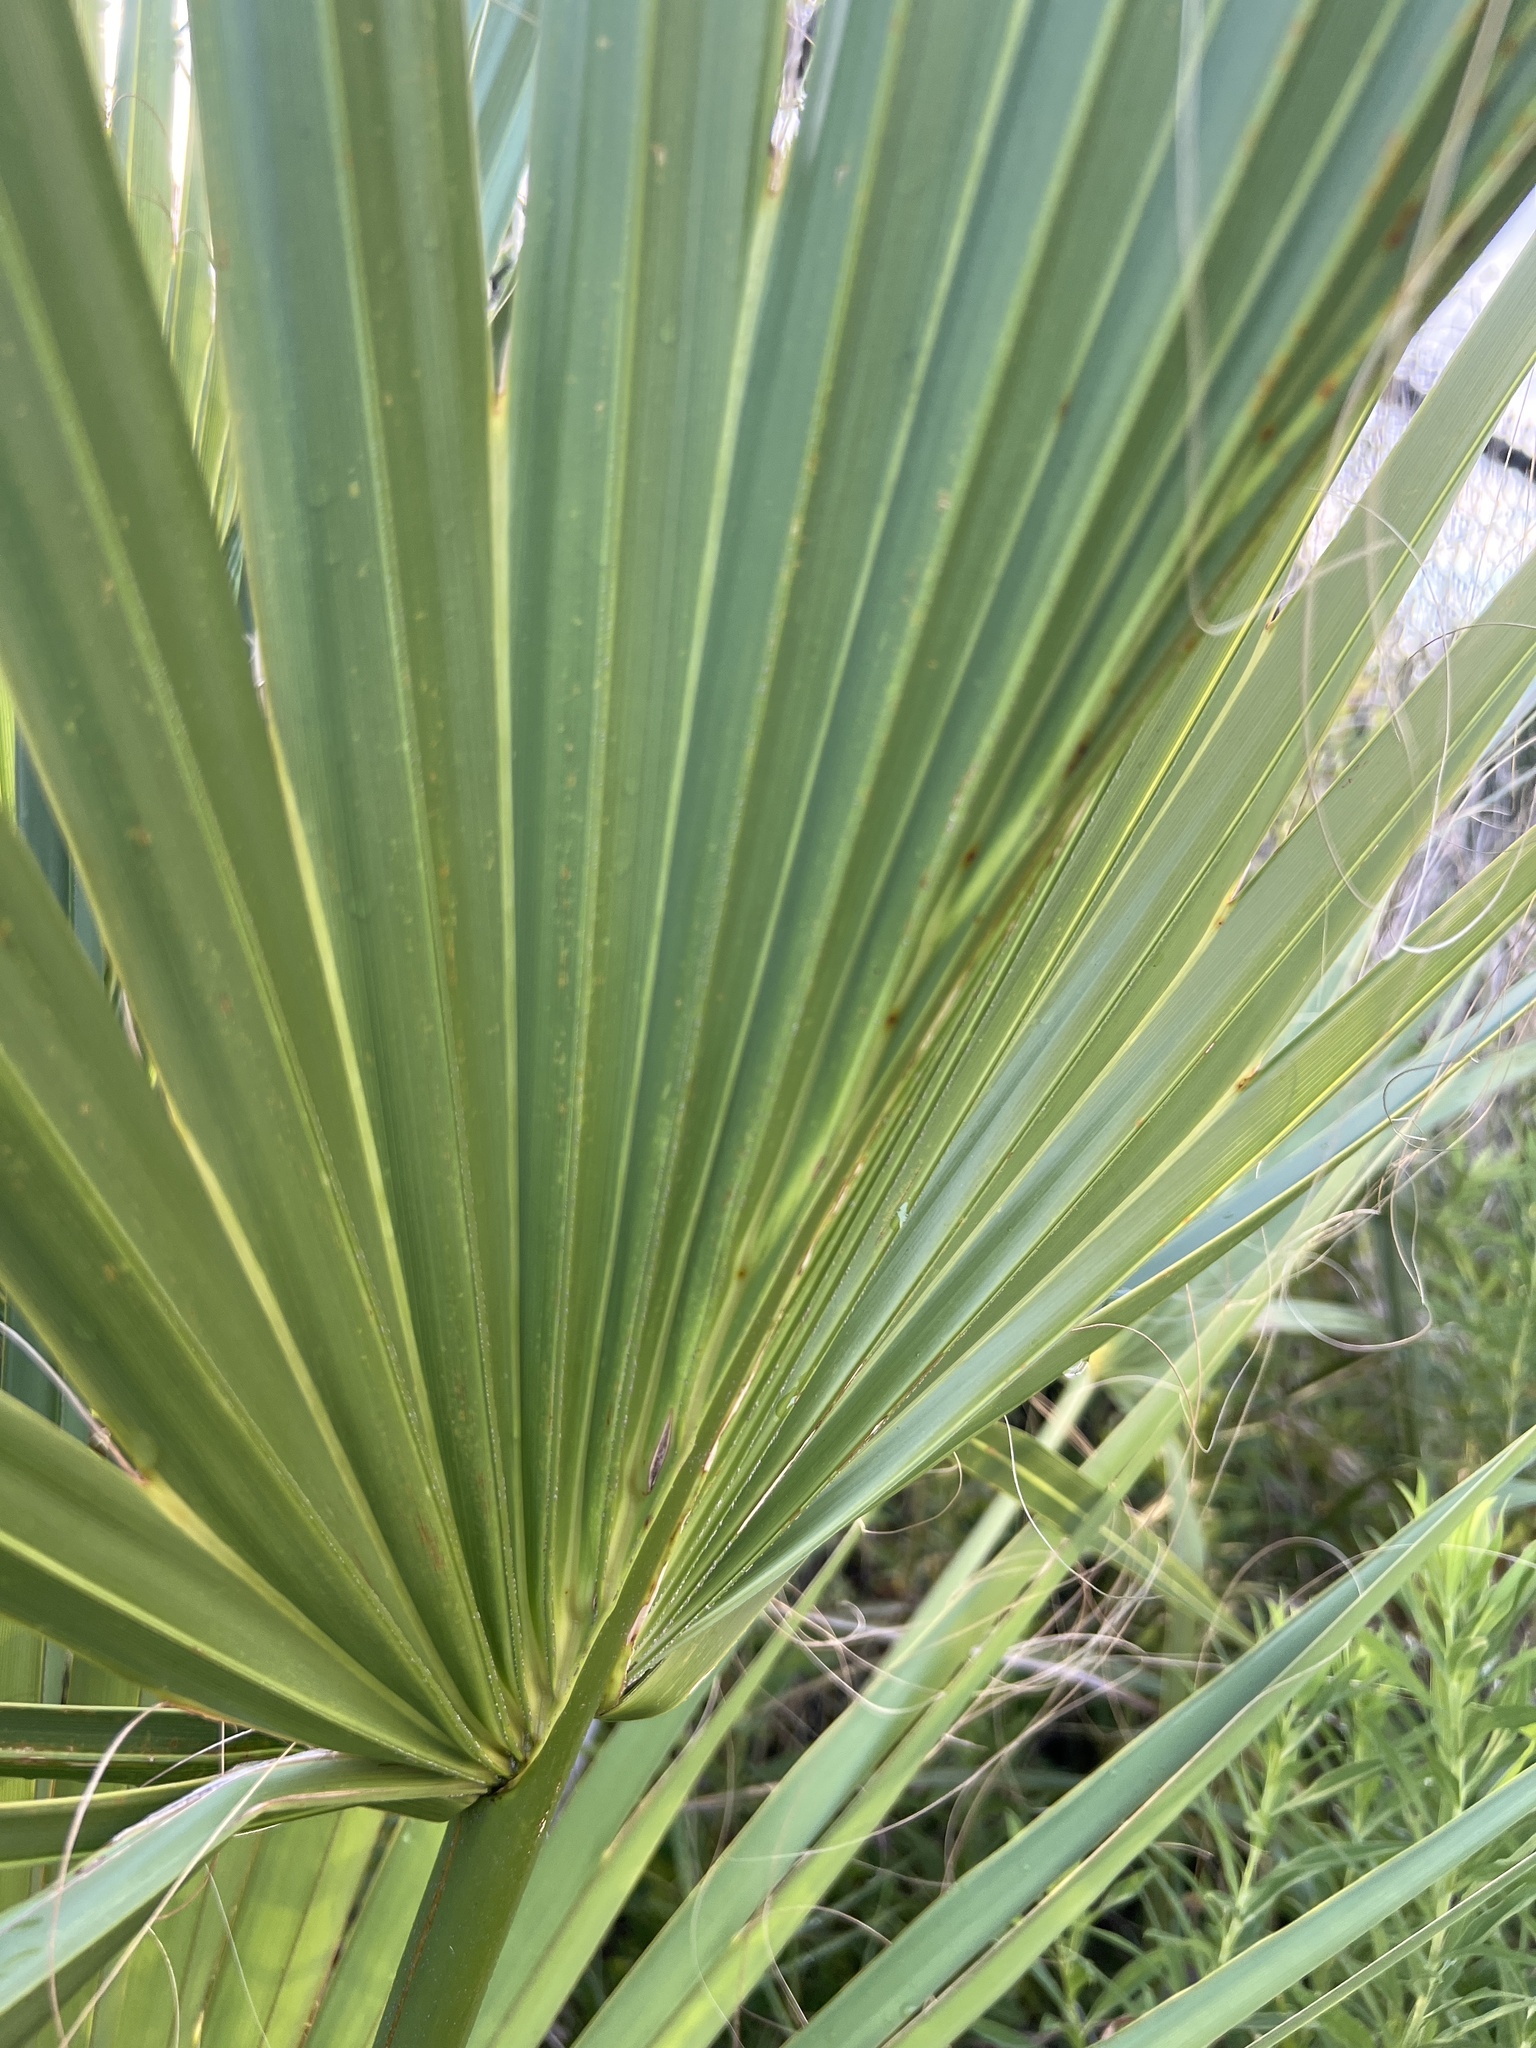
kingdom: Plantae
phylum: Tracheophyta
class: Liliopsida
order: Arecales
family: Arecaceae
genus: Sabal
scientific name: Sabal palmetto
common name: Blue palmetto
